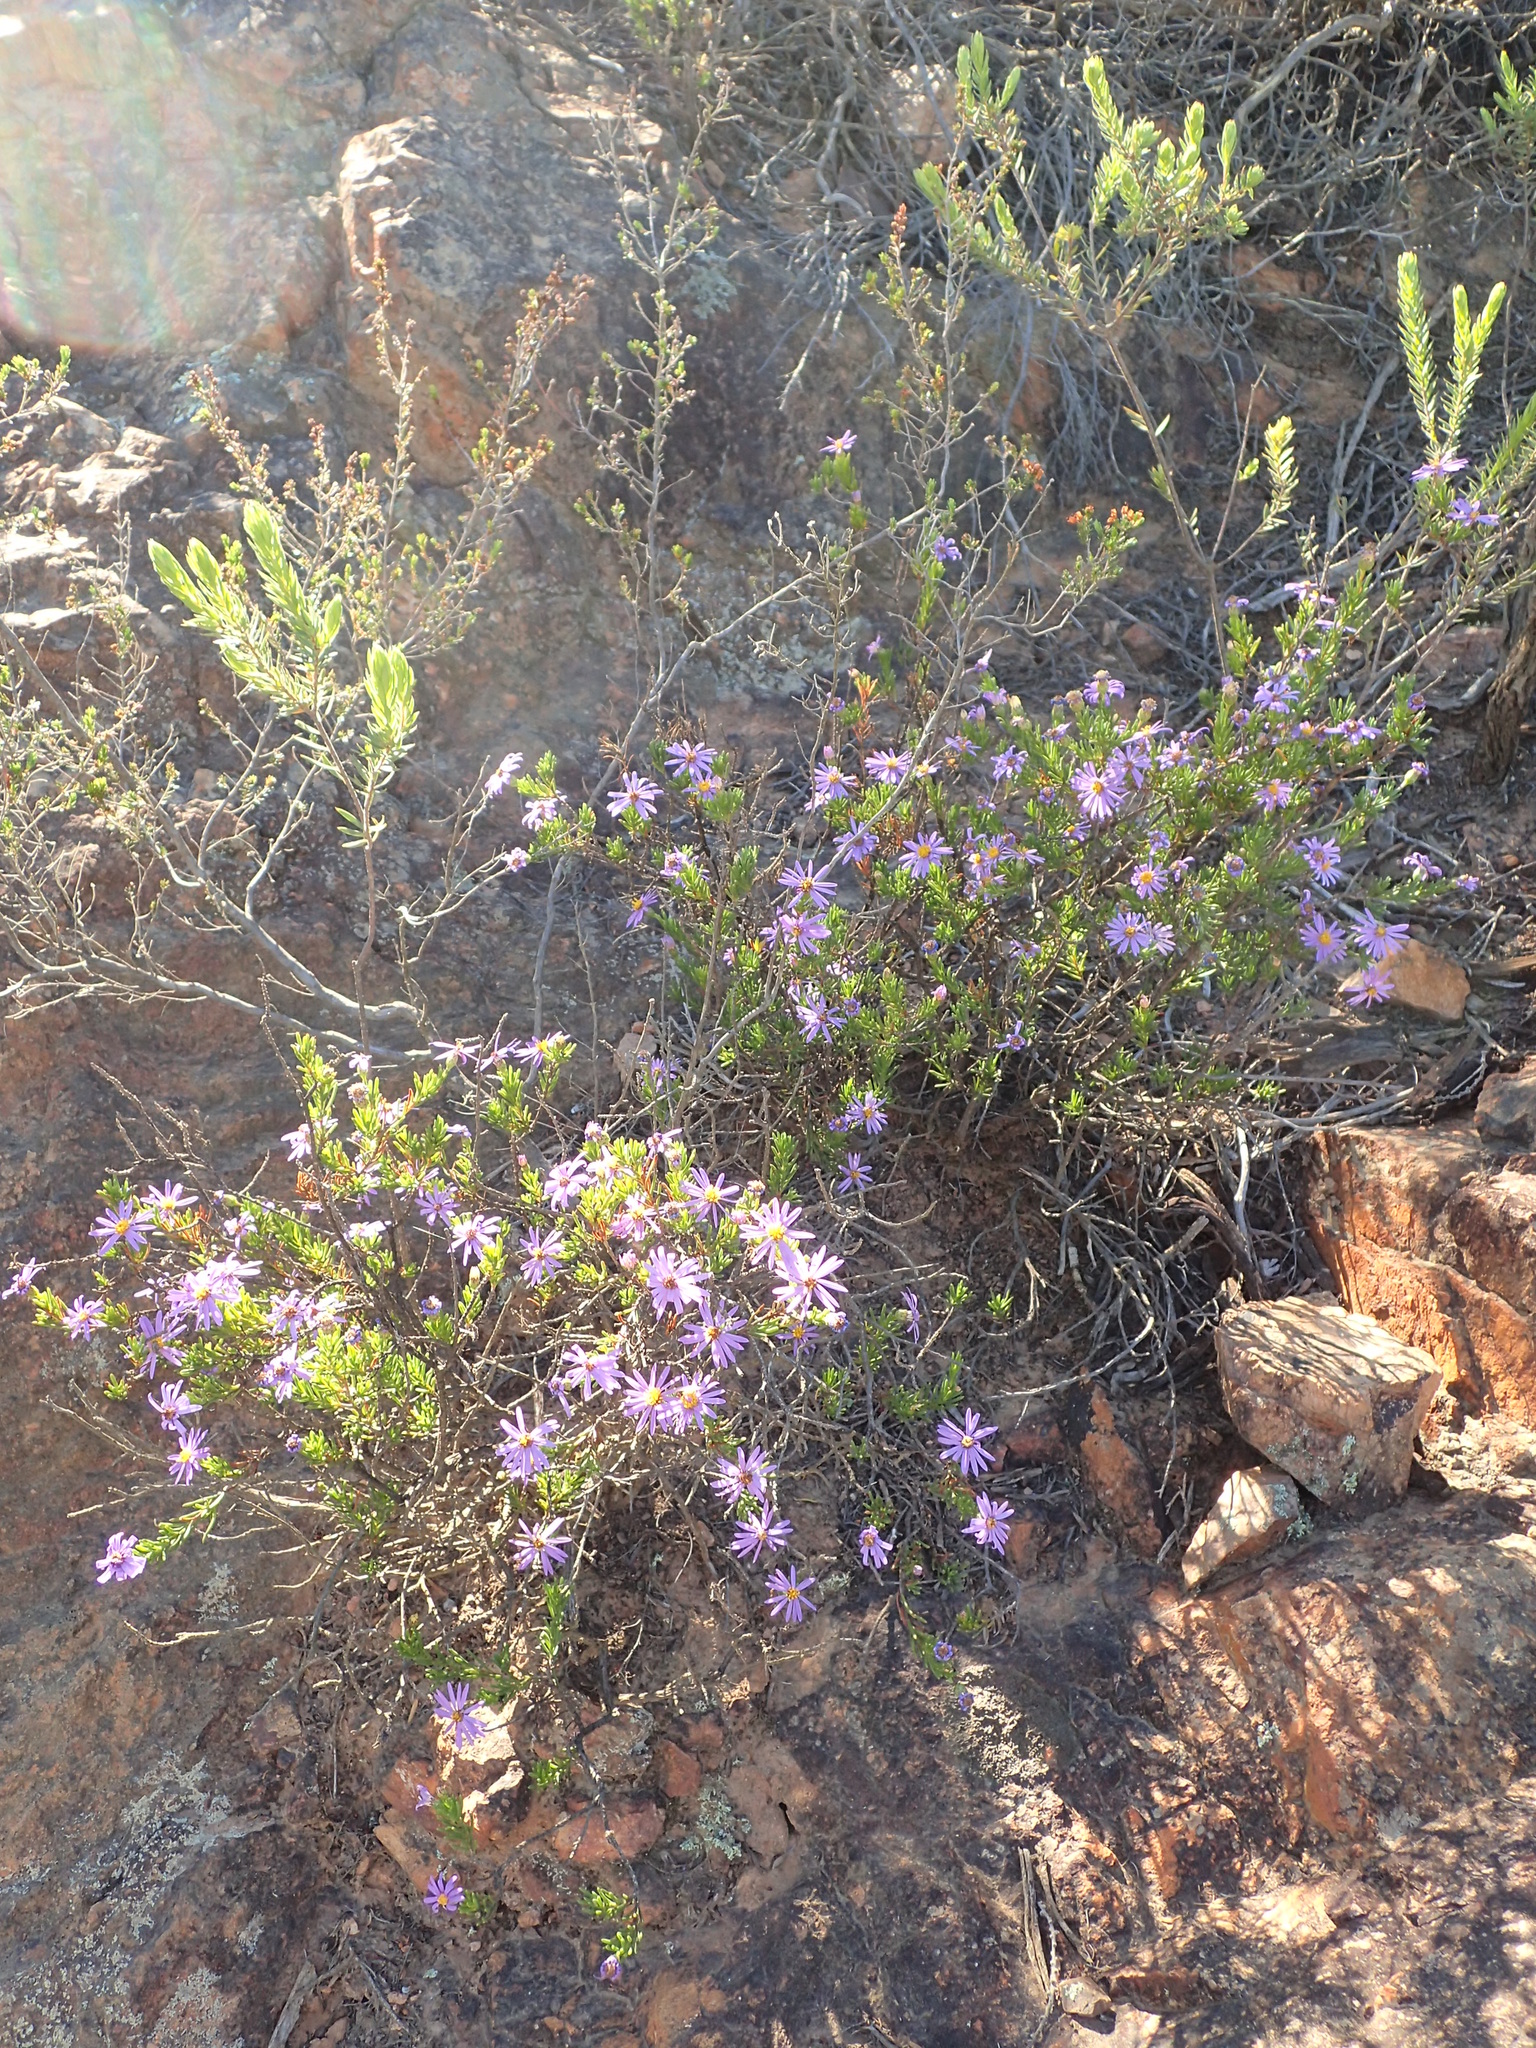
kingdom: Plantae
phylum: Tracheophyta
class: Magnoliopsida
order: Asterales
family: Asteraceae
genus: Felicia
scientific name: Felicia filifolia
